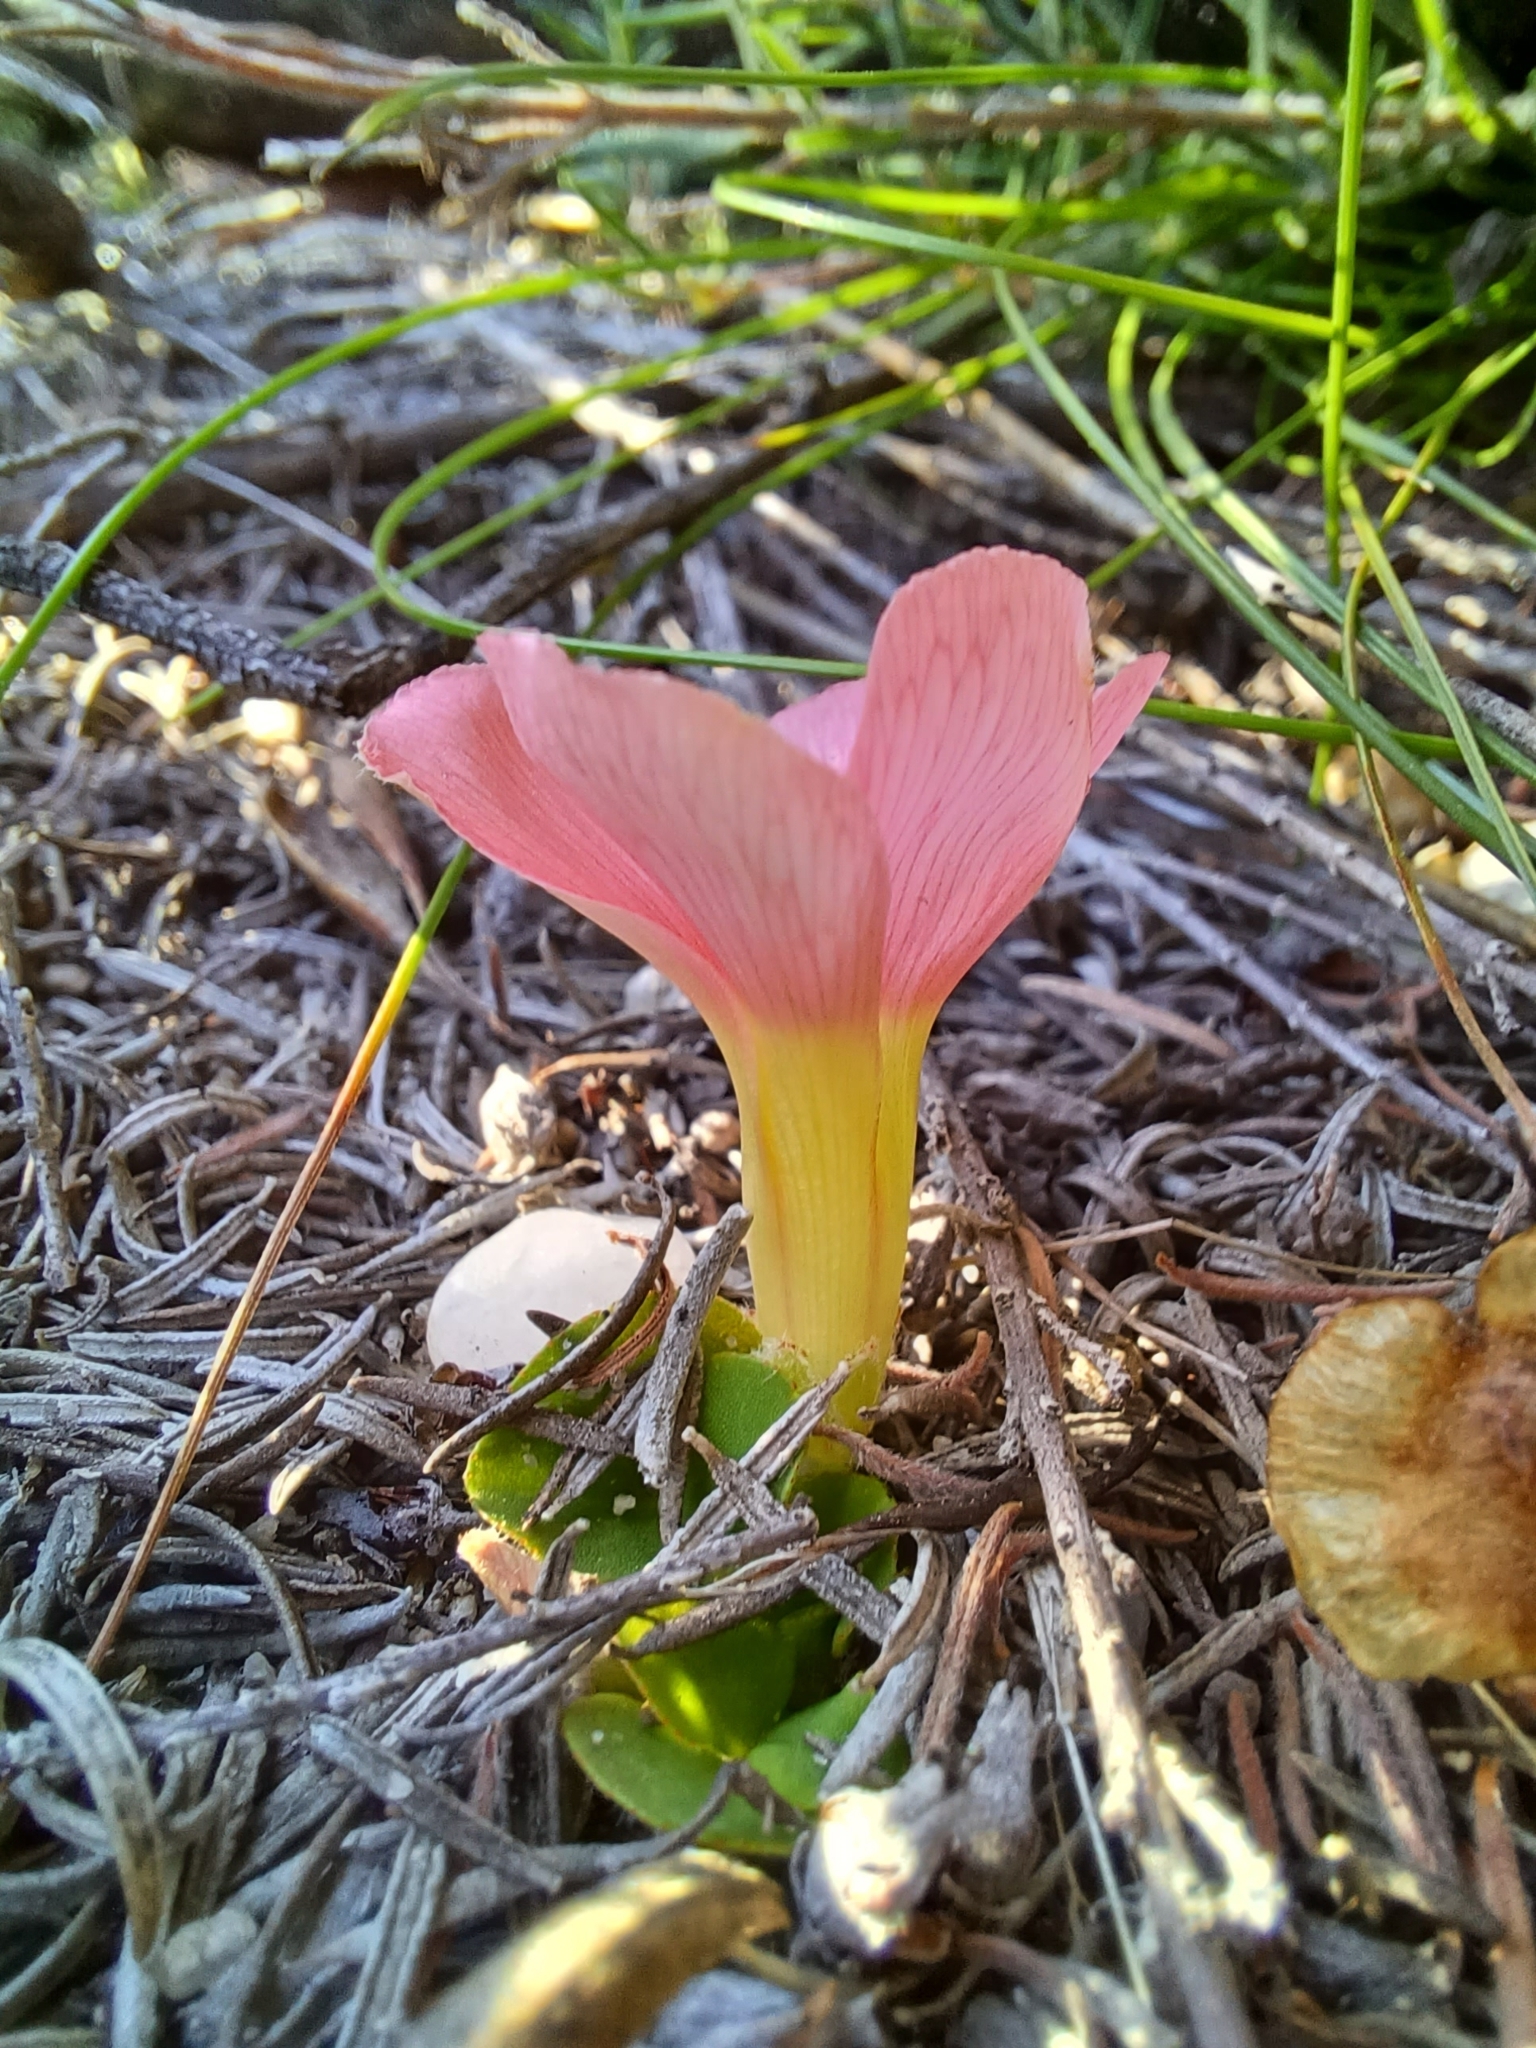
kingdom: Plantae
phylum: Tracheophyta
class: Magnoliopsida
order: Oxalidales
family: Oxalidaceae
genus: Oxalis
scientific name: Oxalis pulchella
